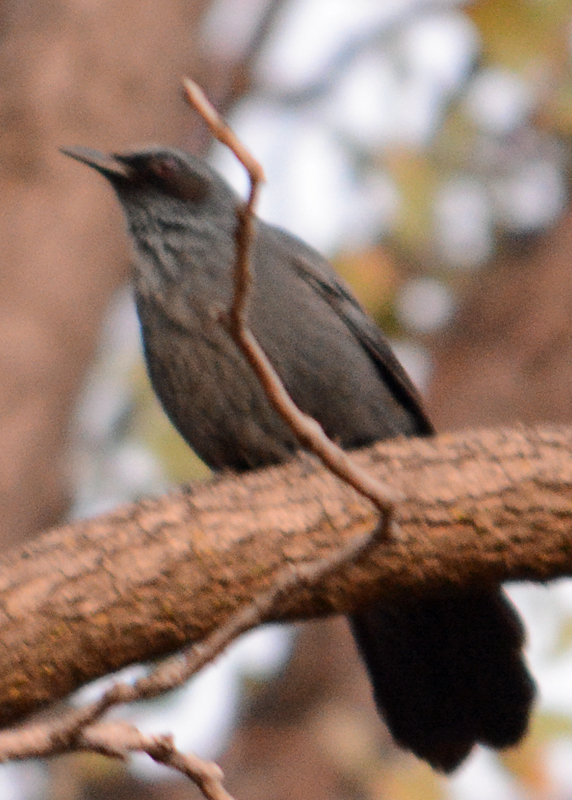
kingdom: Animalia
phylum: Chordata
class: Aves
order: Passeriformes
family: Mimidae
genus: Melanotis
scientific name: Melanotis caerulescens
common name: Blue mockingbird
